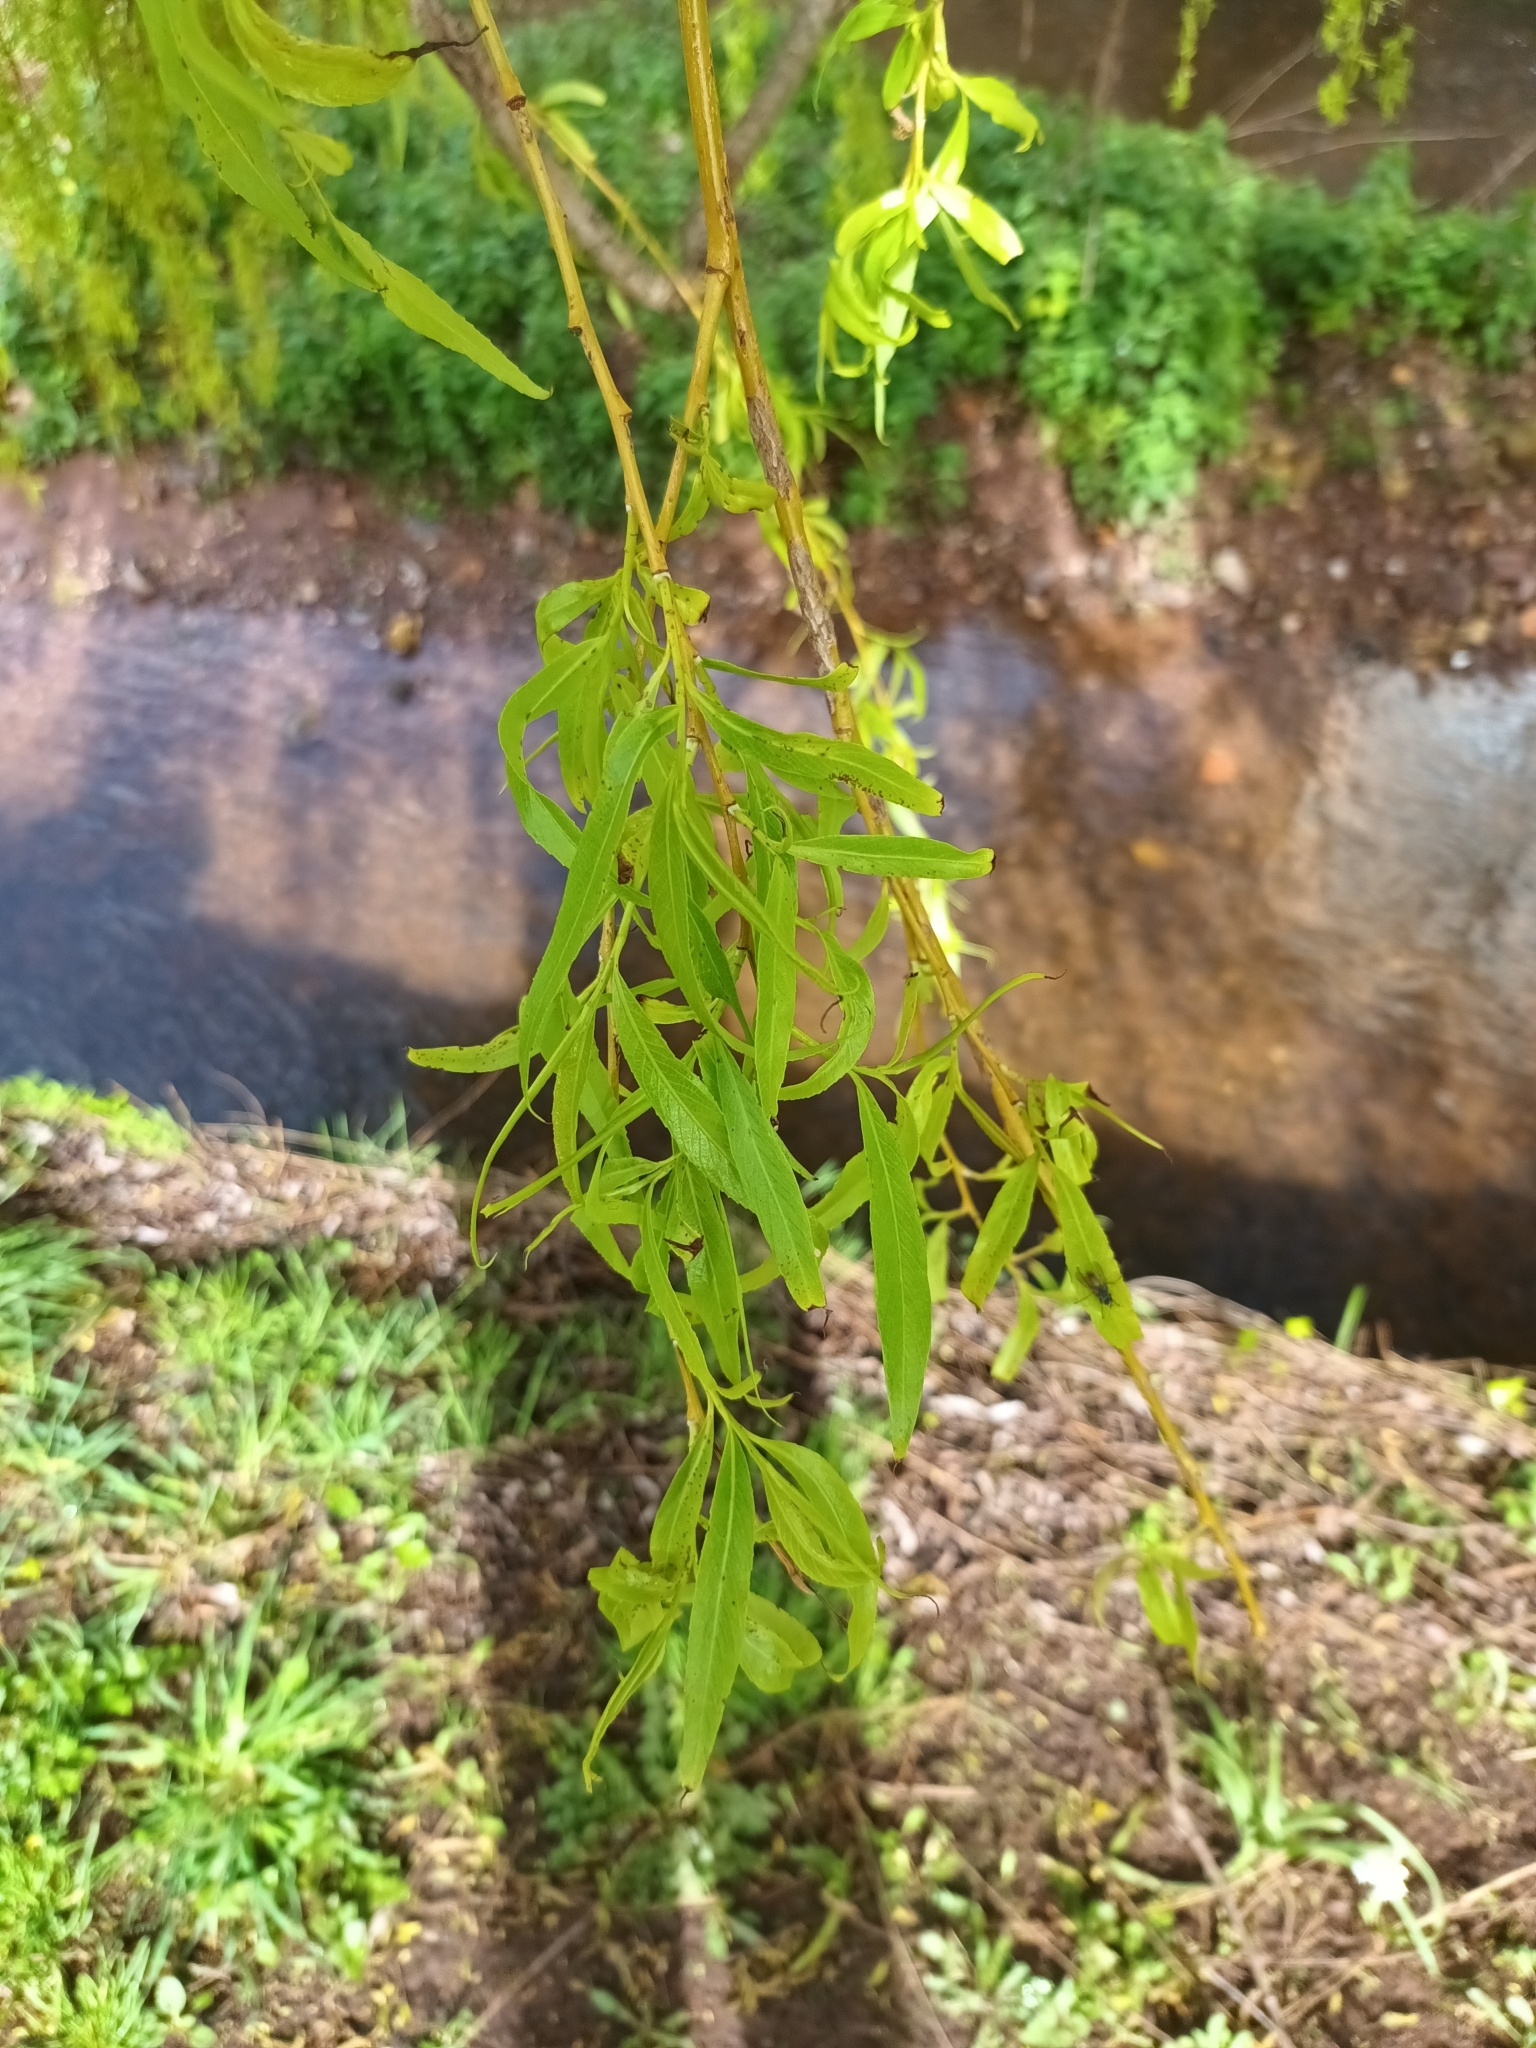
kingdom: Plantae
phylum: Tracheophyta
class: Magnoliopsida
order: Malpighiales
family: Salicaceae
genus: Salix
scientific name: Salix pendulina
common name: Wisconsin weeping willow
